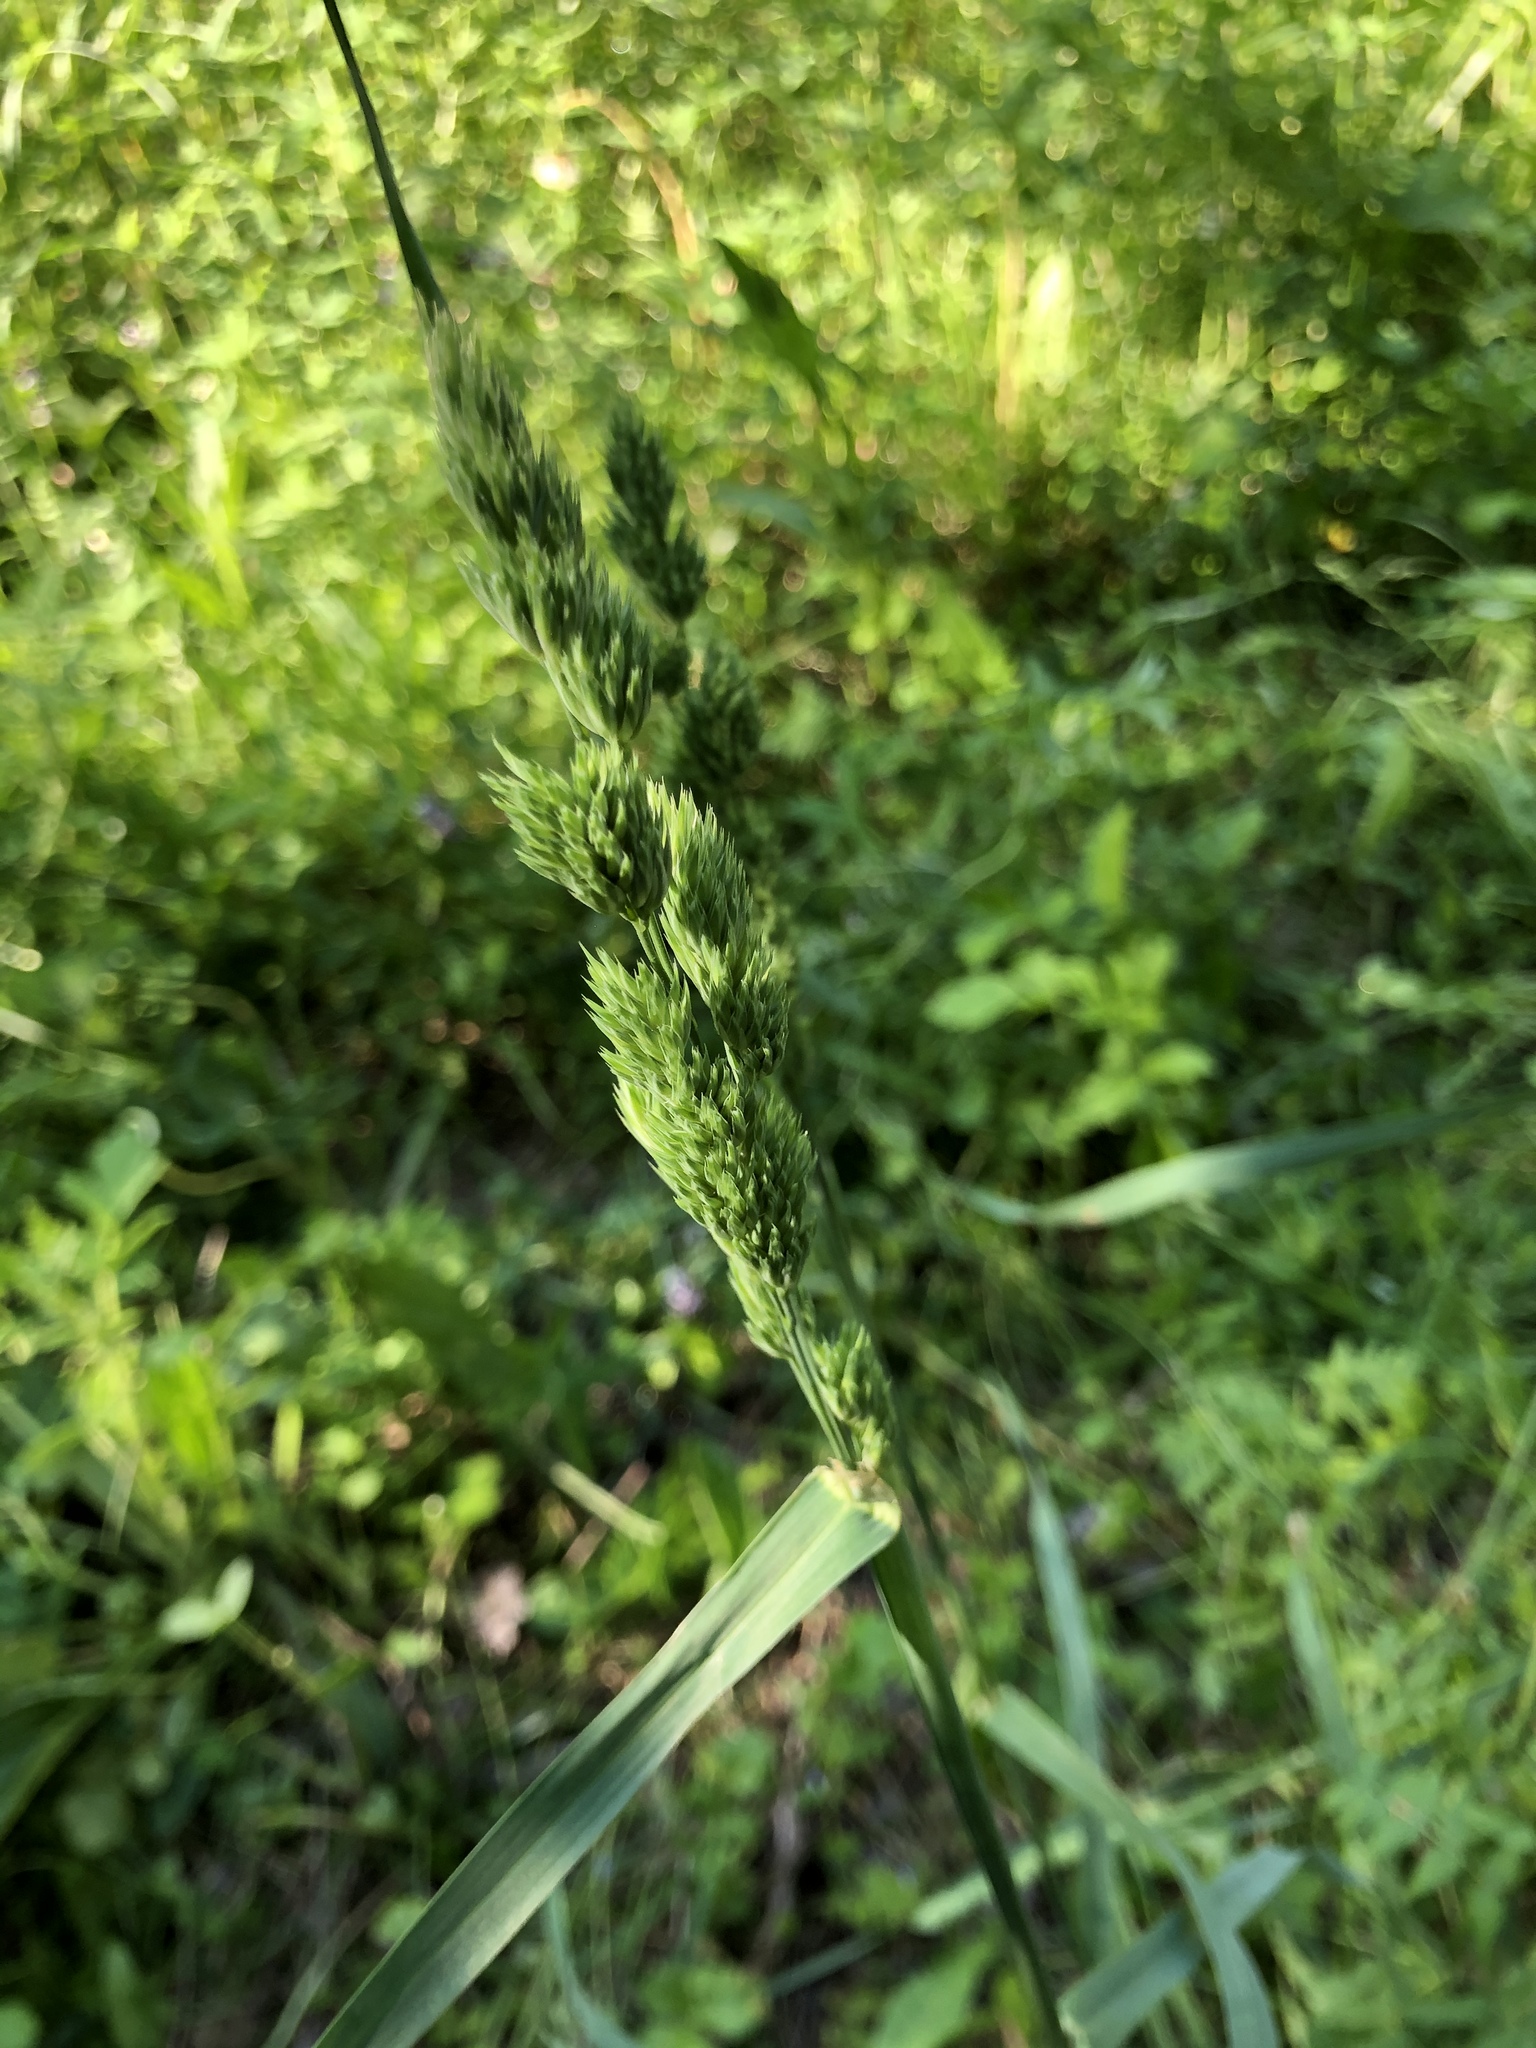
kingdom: Plantae
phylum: Tracheophyta
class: Liliopsida
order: Poales
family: Poaceae
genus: Dactylis
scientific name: Dactylis glomerata
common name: Orchardgrass
